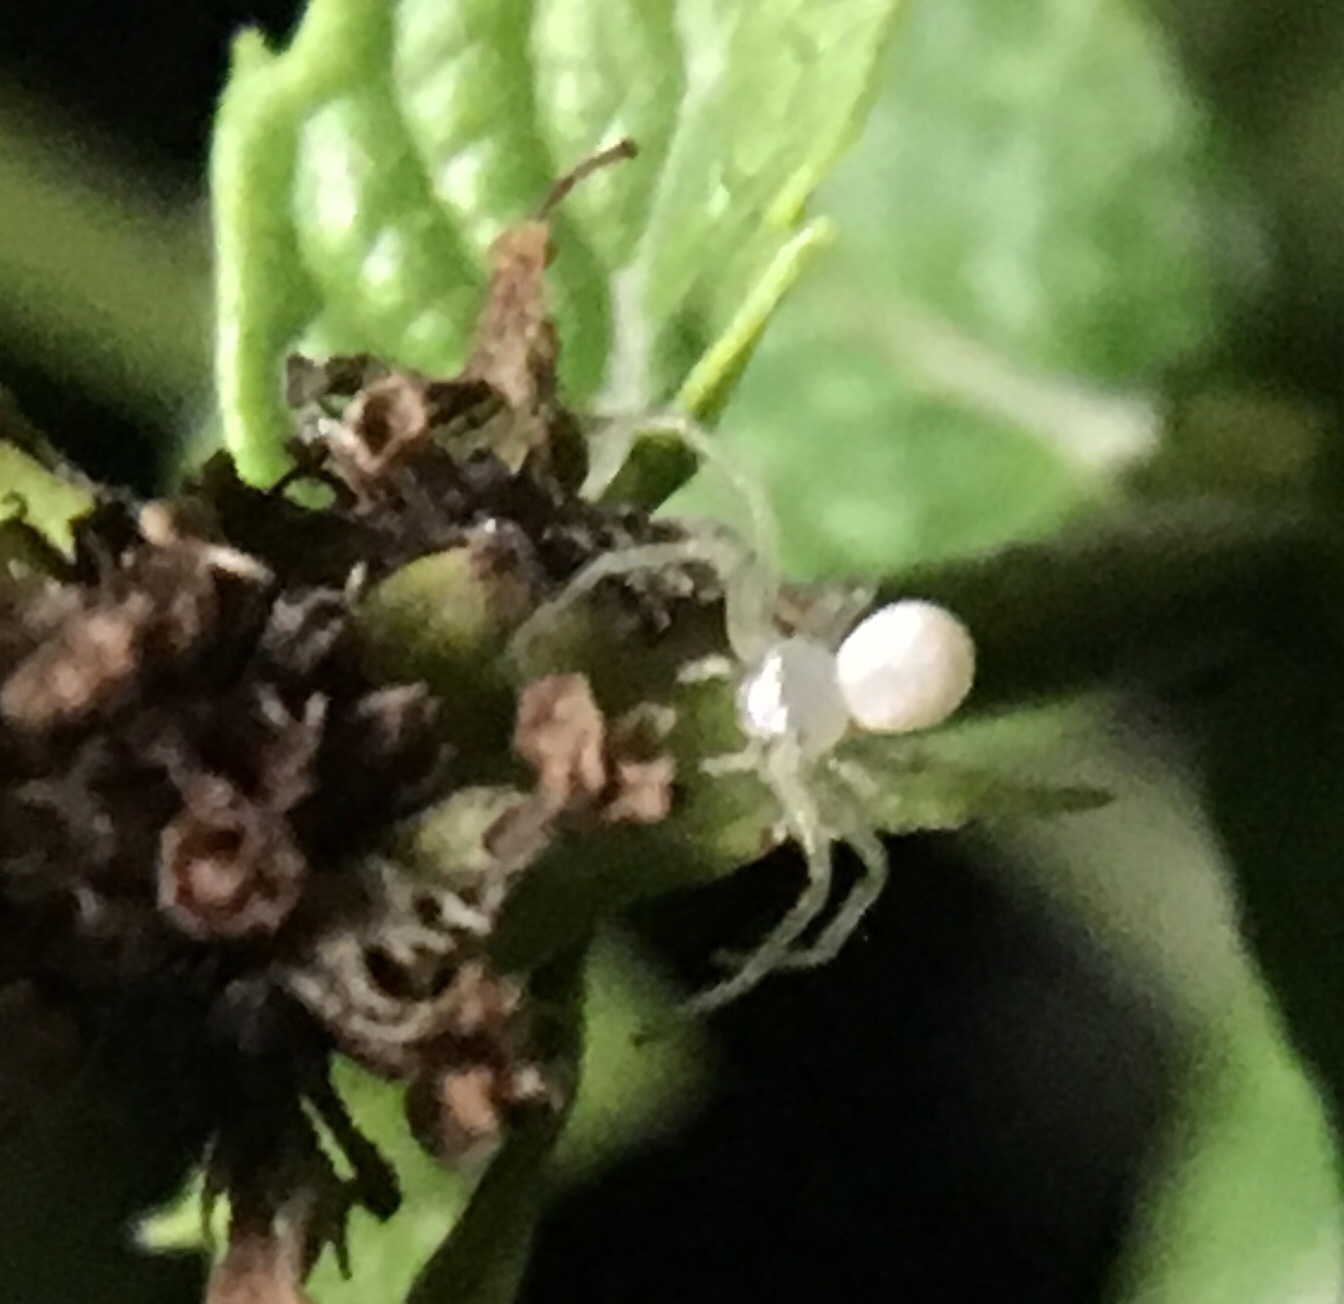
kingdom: Animalia
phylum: Arthropoda
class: Arachnida
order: Araneae
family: Thomisidae
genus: Misumessus
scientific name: Misumessus oblongus
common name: American green crab spider
